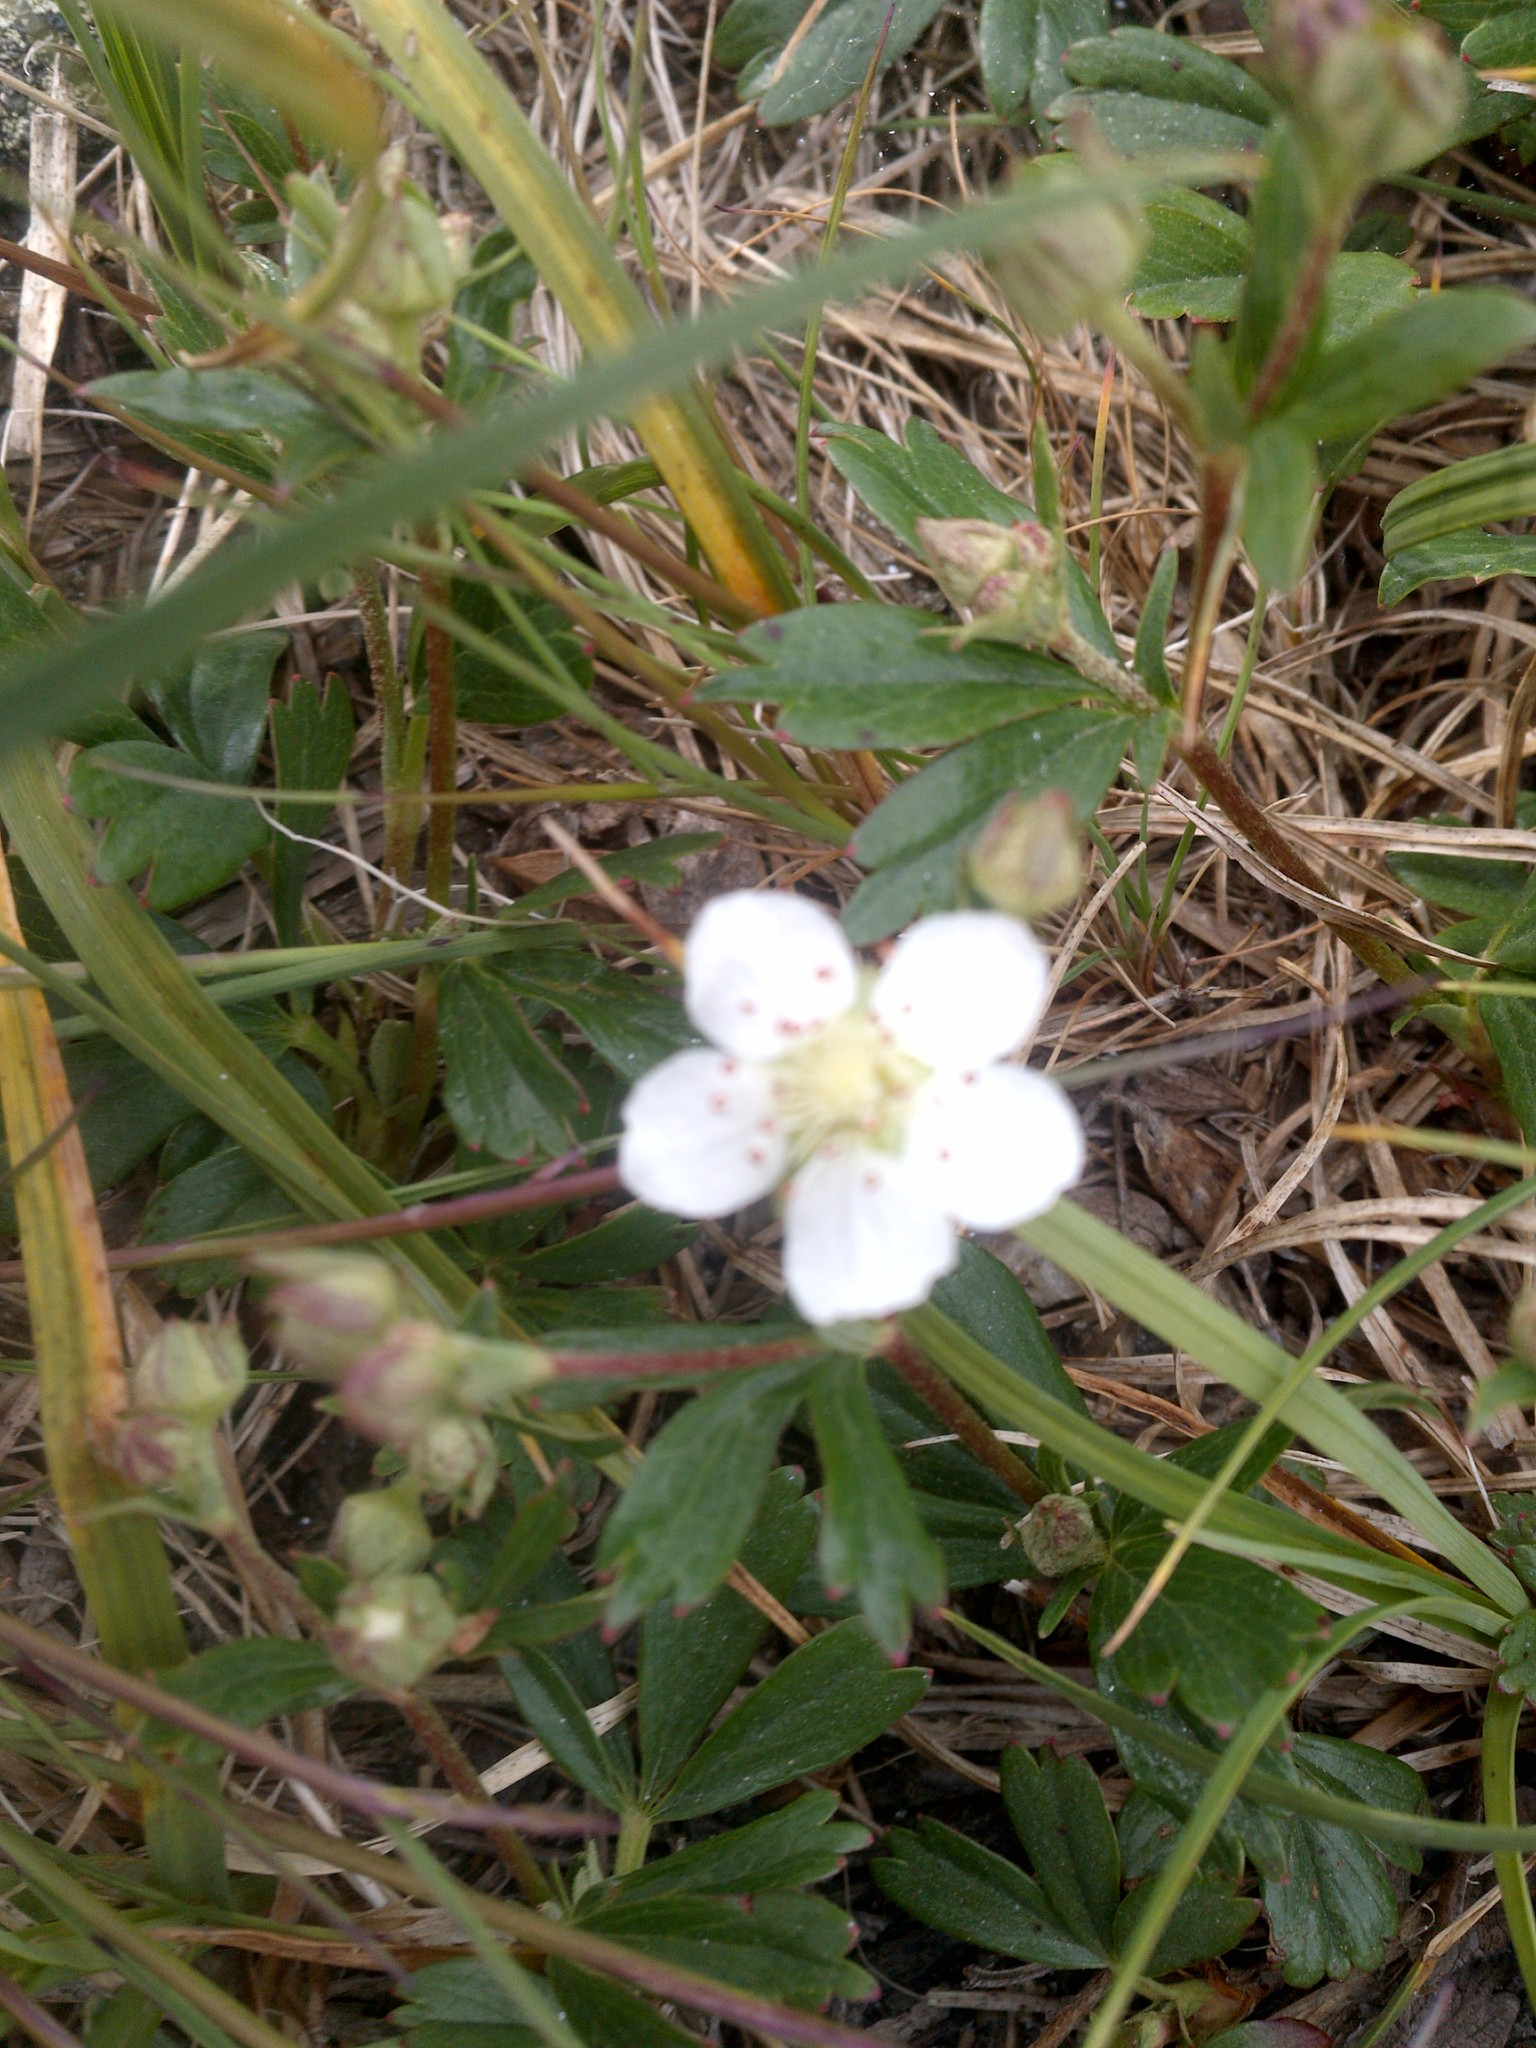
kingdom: Plantae
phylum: Tracheophyta
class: Magnoliopsida
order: Rosales
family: Rosaceae
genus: Sibbaldia
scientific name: Sibbaldia tridentata
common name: Three-toothed cinquefoil
